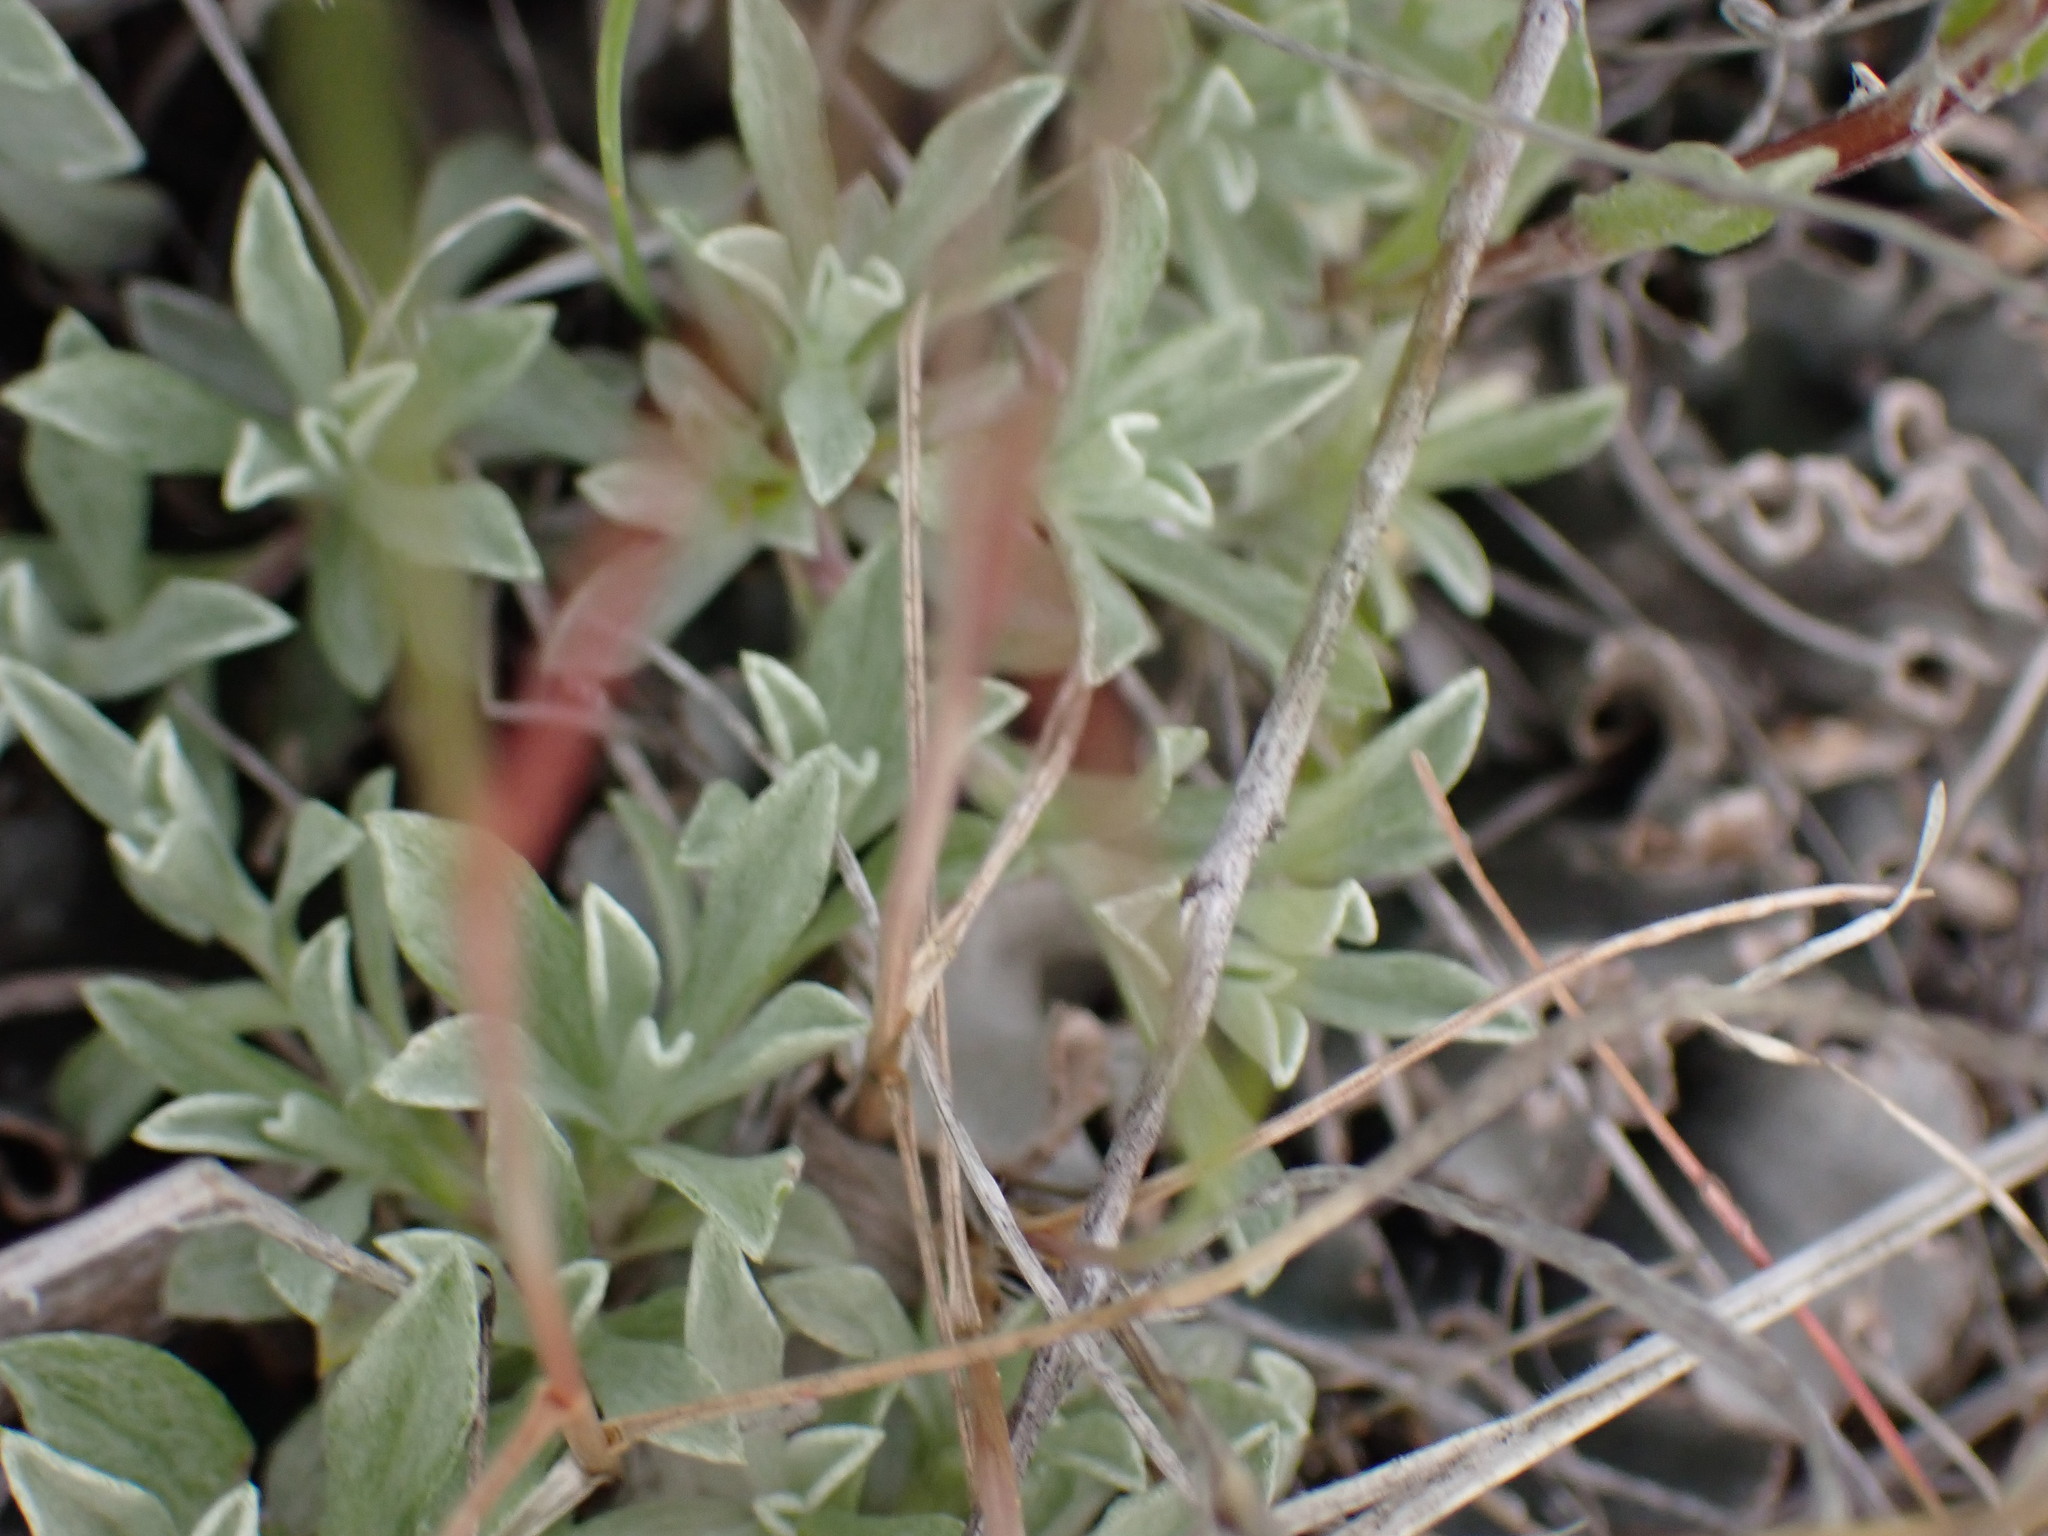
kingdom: Plantae
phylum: Tracheophyta
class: Magnoliopsida
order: Asterales
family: Asteraceae
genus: Antennaria
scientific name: Antennaria rosea
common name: Rosy pussytoes
